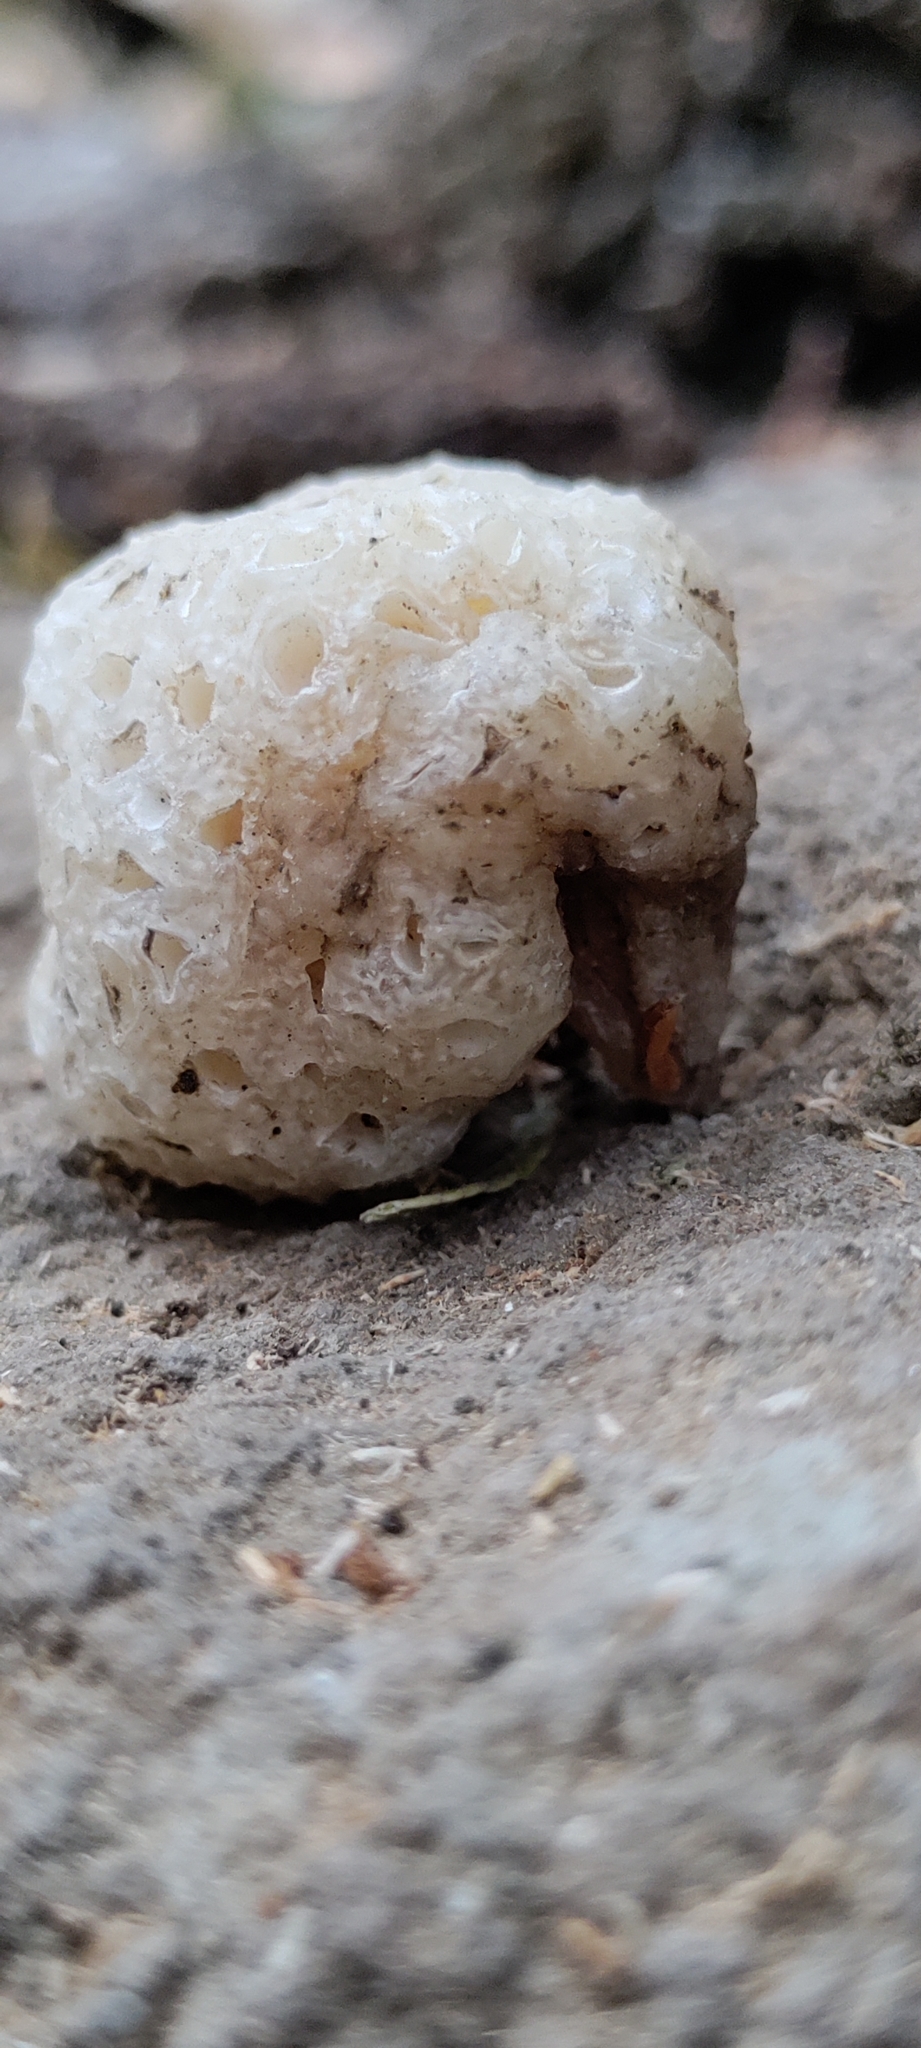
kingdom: Fungi
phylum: Ascomycota
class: Leotiomycetes
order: Cyttariales
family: Cyttariaceae
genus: Cyttaria
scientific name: Cyttaria hariotii
